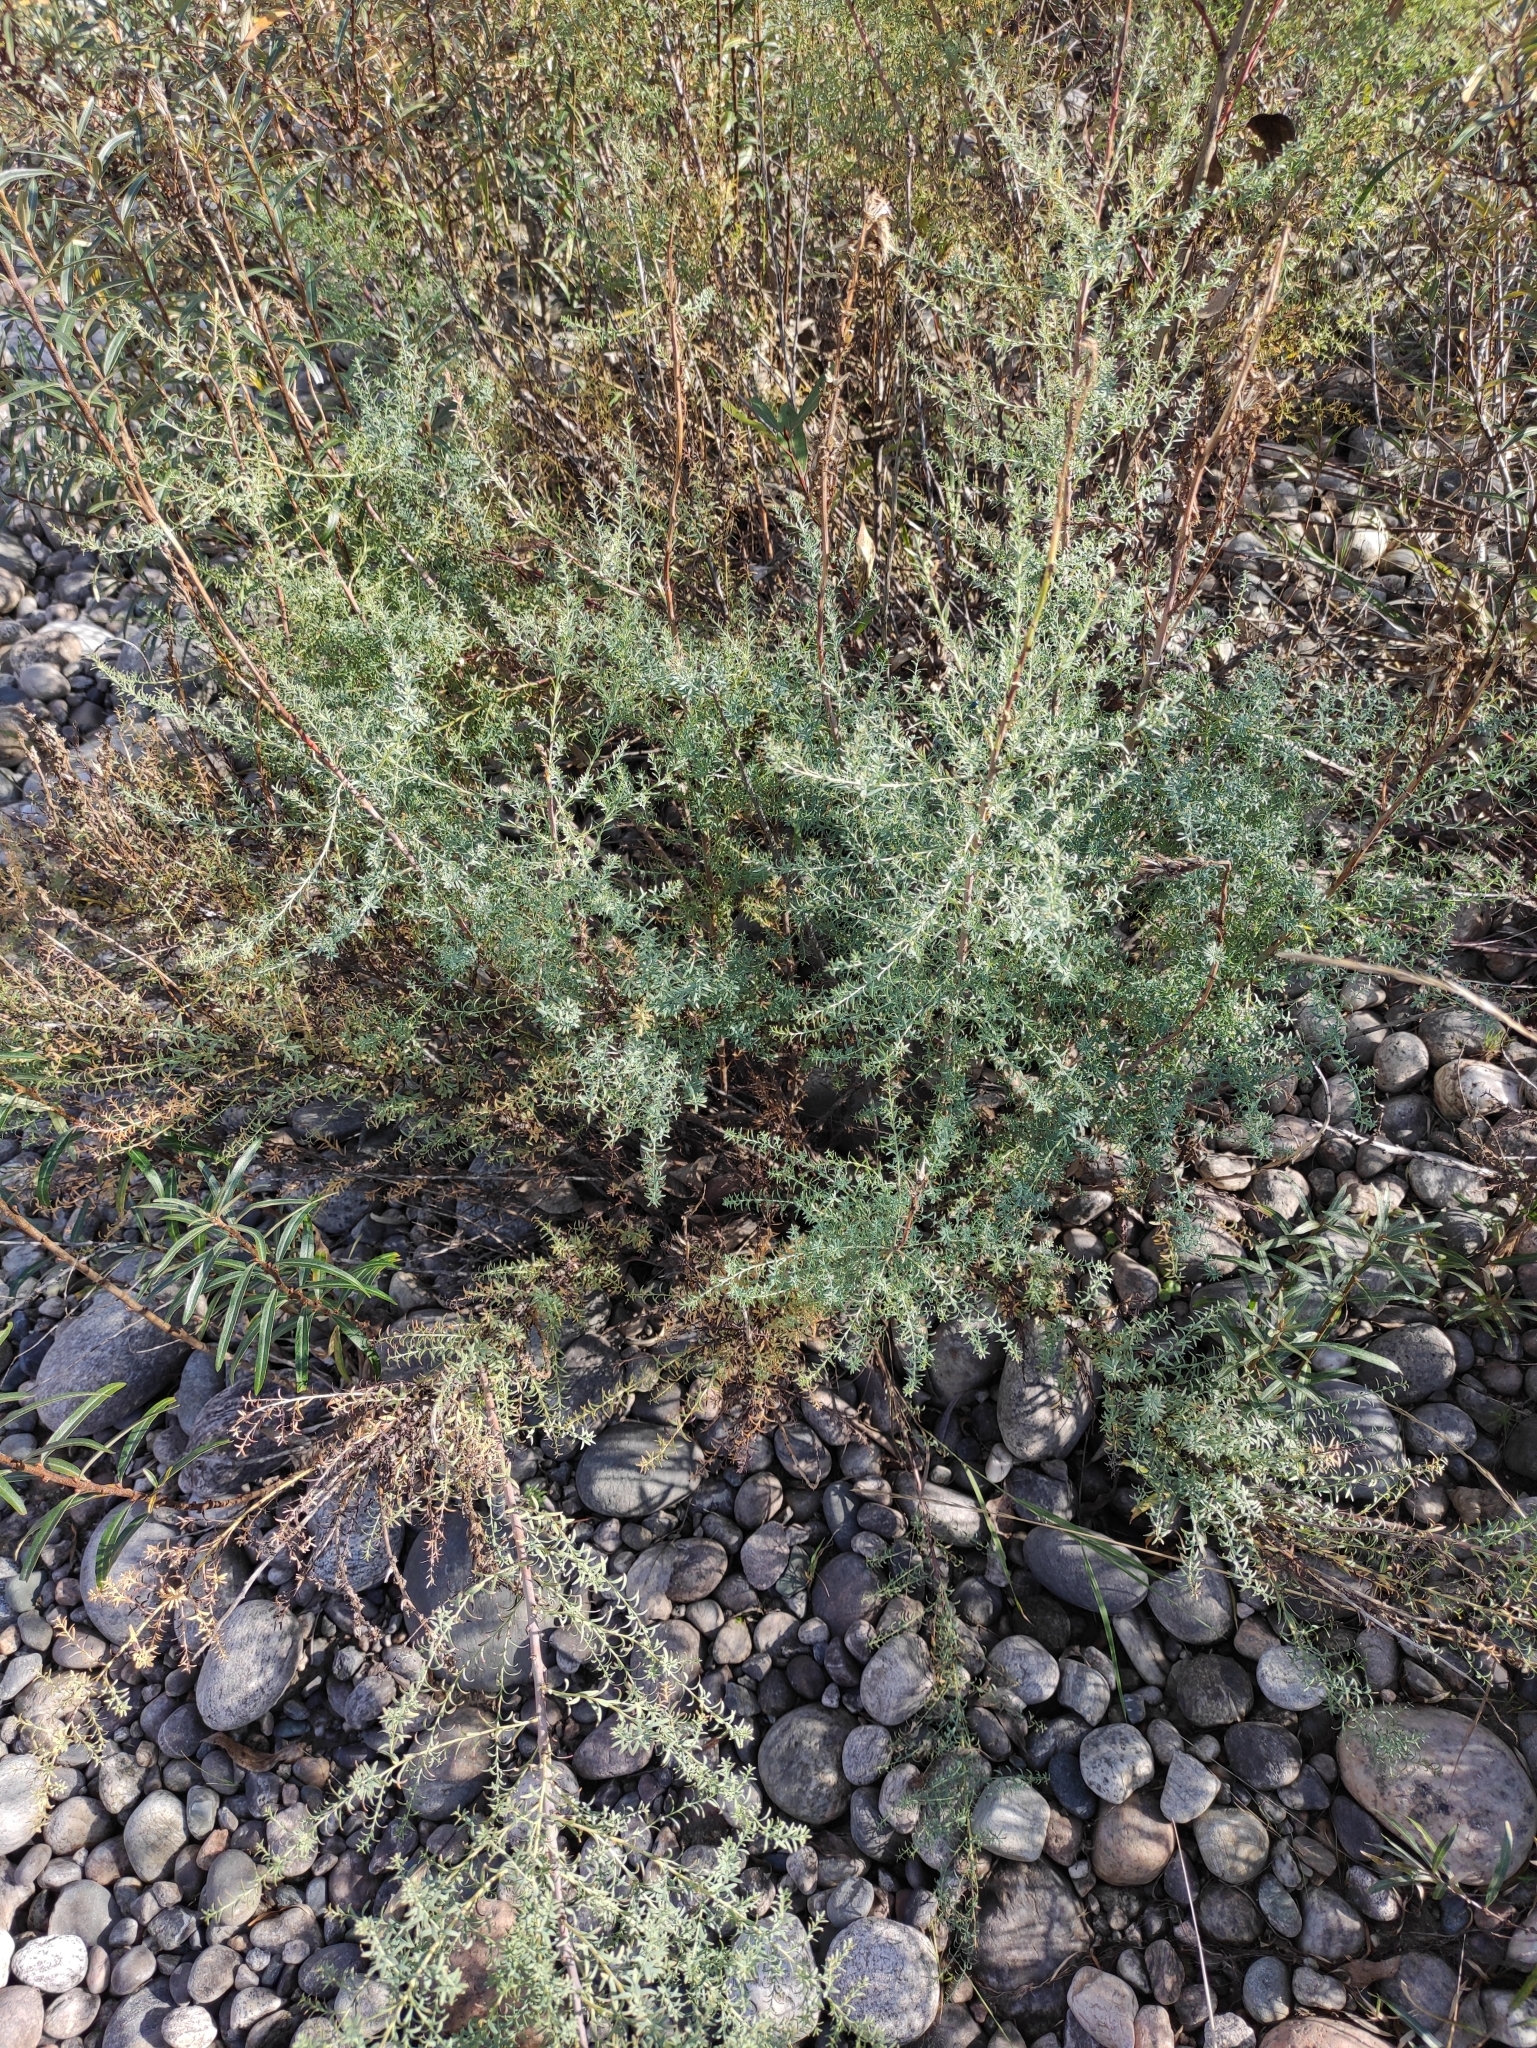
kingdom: Plantae
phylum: Tracheophyta
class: Magnoliopsida
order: Caryophyllales
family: Tamaricaceae
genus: Myricaria
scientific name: Myricaria longifolia
